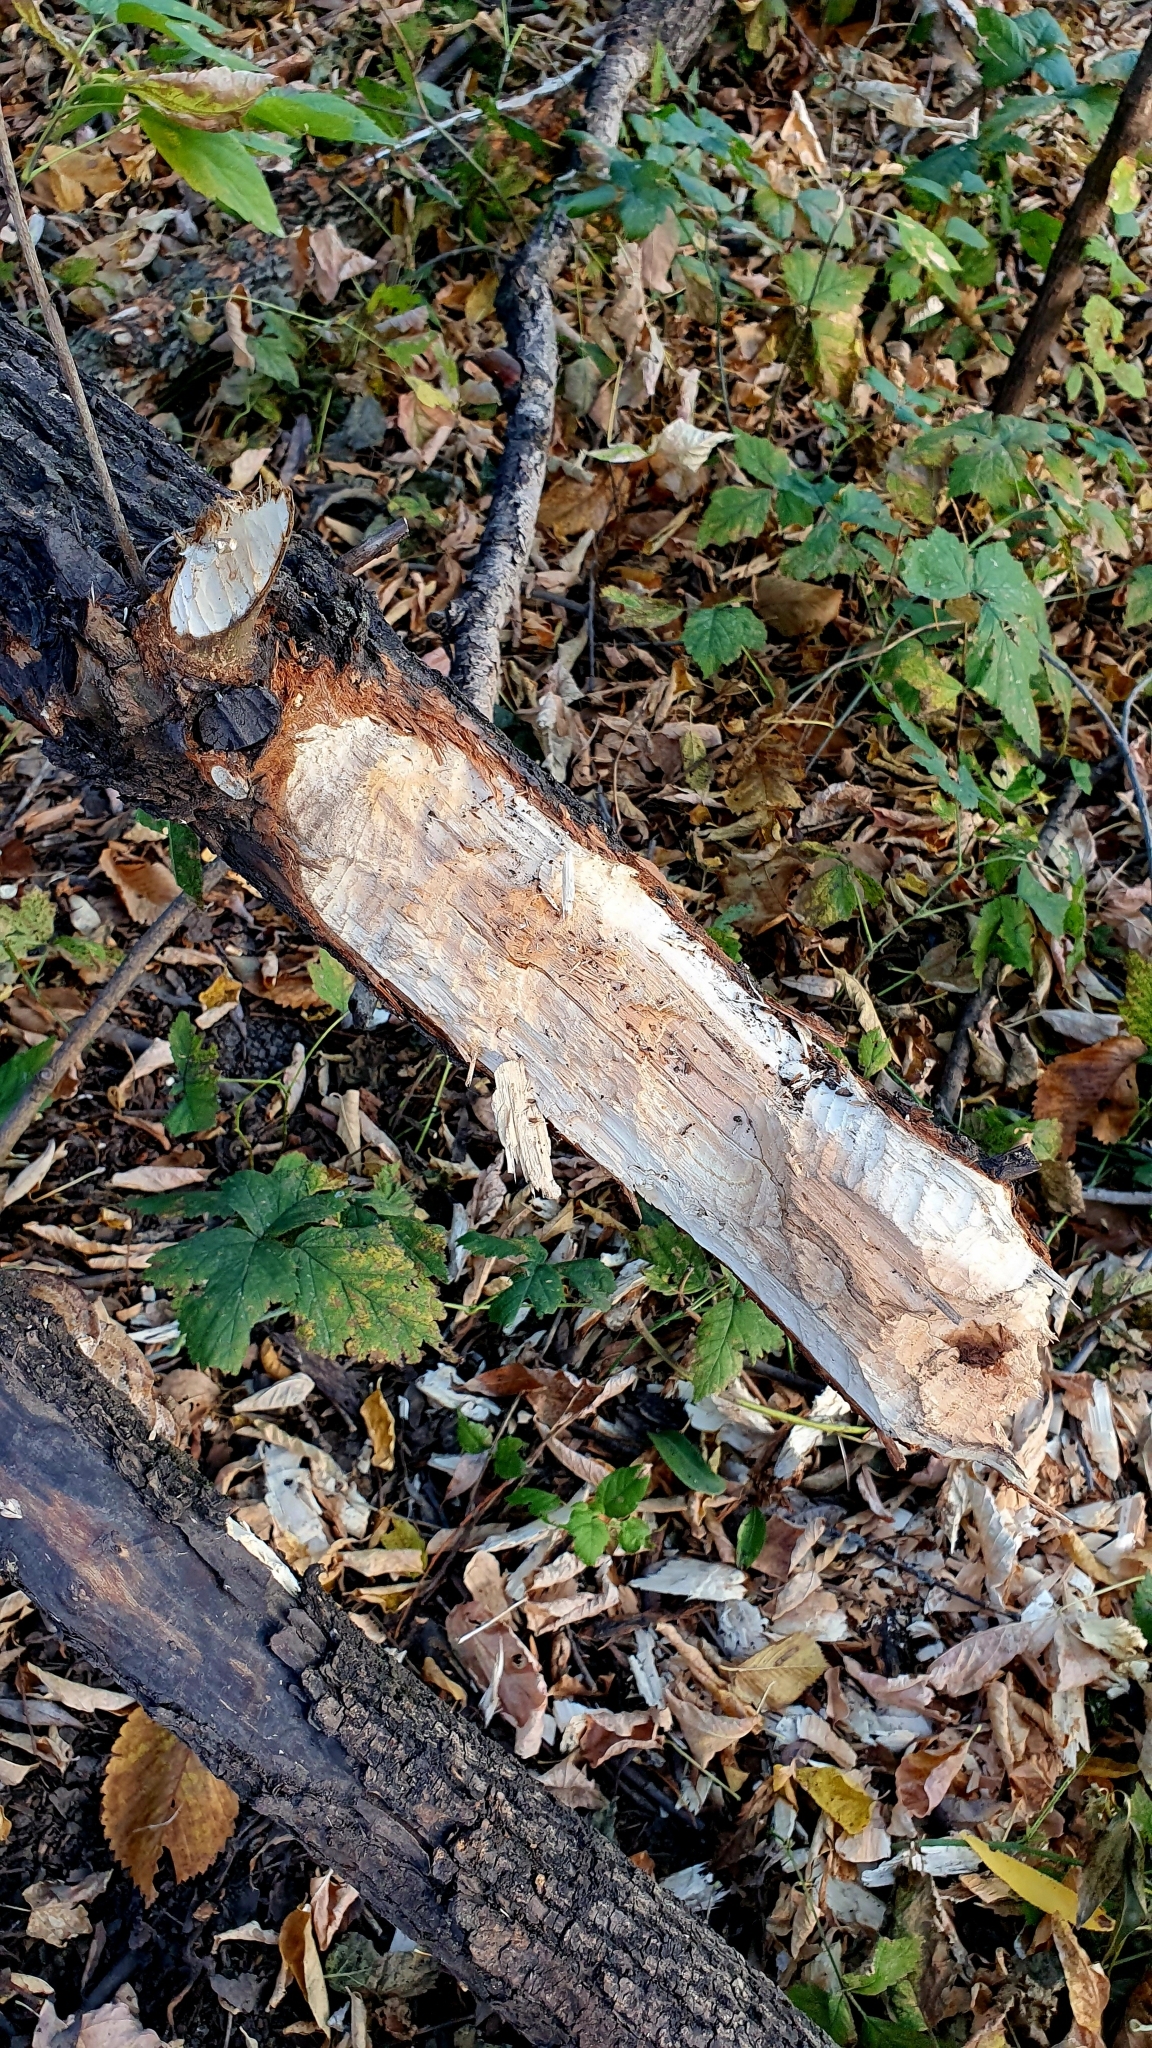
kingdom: Animalia
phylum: Chordata
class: Mammalia
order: Rodentia
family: Castoridae
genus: Castor
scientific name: Castor fiber
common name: Eurasian beaver
